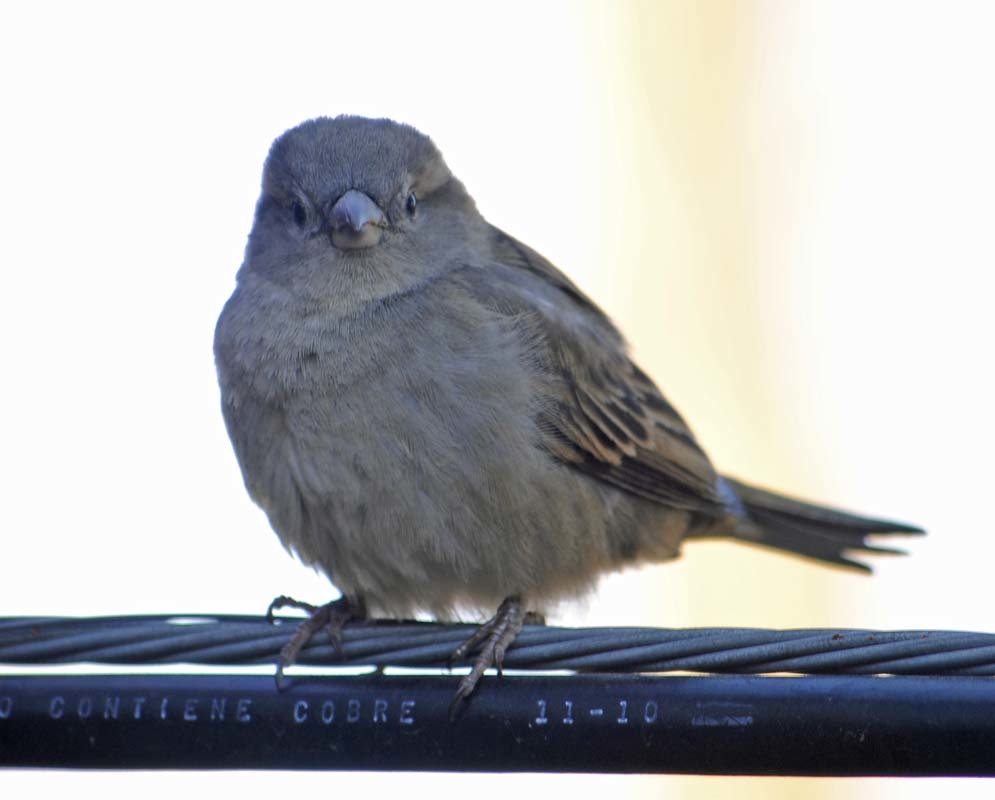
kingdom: Animalia
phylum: Chordata
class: Aves
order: Passeriformes
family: Passeridae
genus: Passer
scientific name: Passer domesticus
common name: House sparrow
